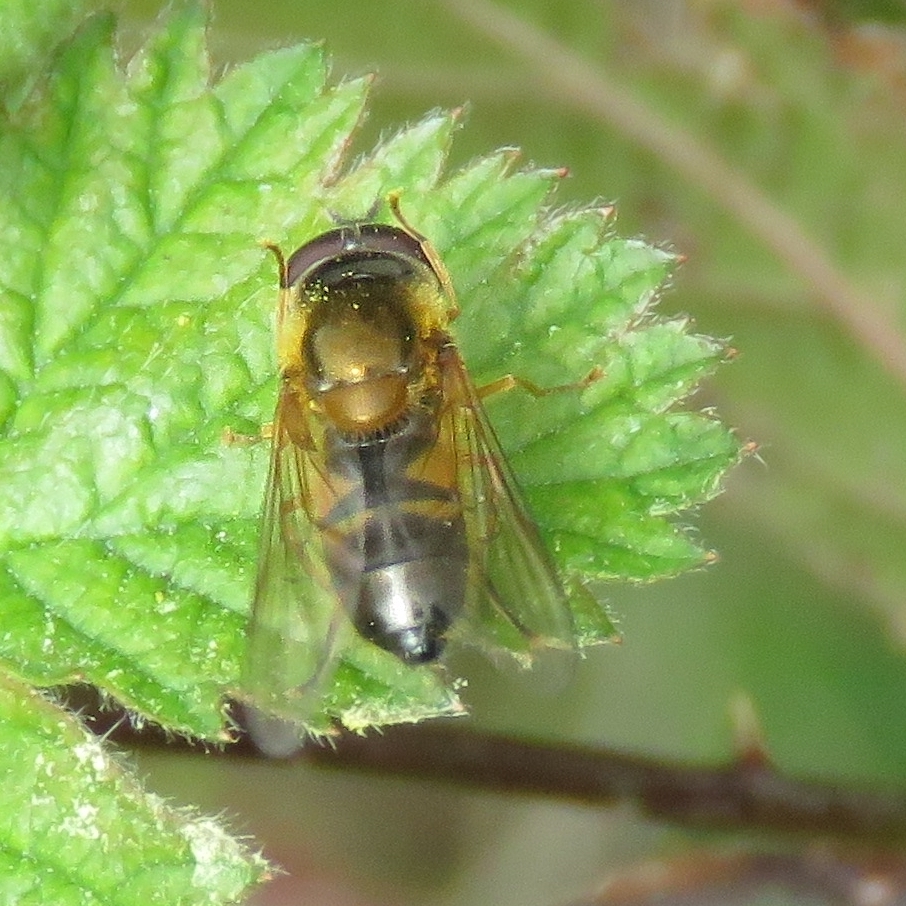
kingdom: Animalia
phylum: Arthropoda
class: Insecta
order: Diptera
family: Syrphidae
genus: Epistrophe
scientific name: Epistrophe eligans
